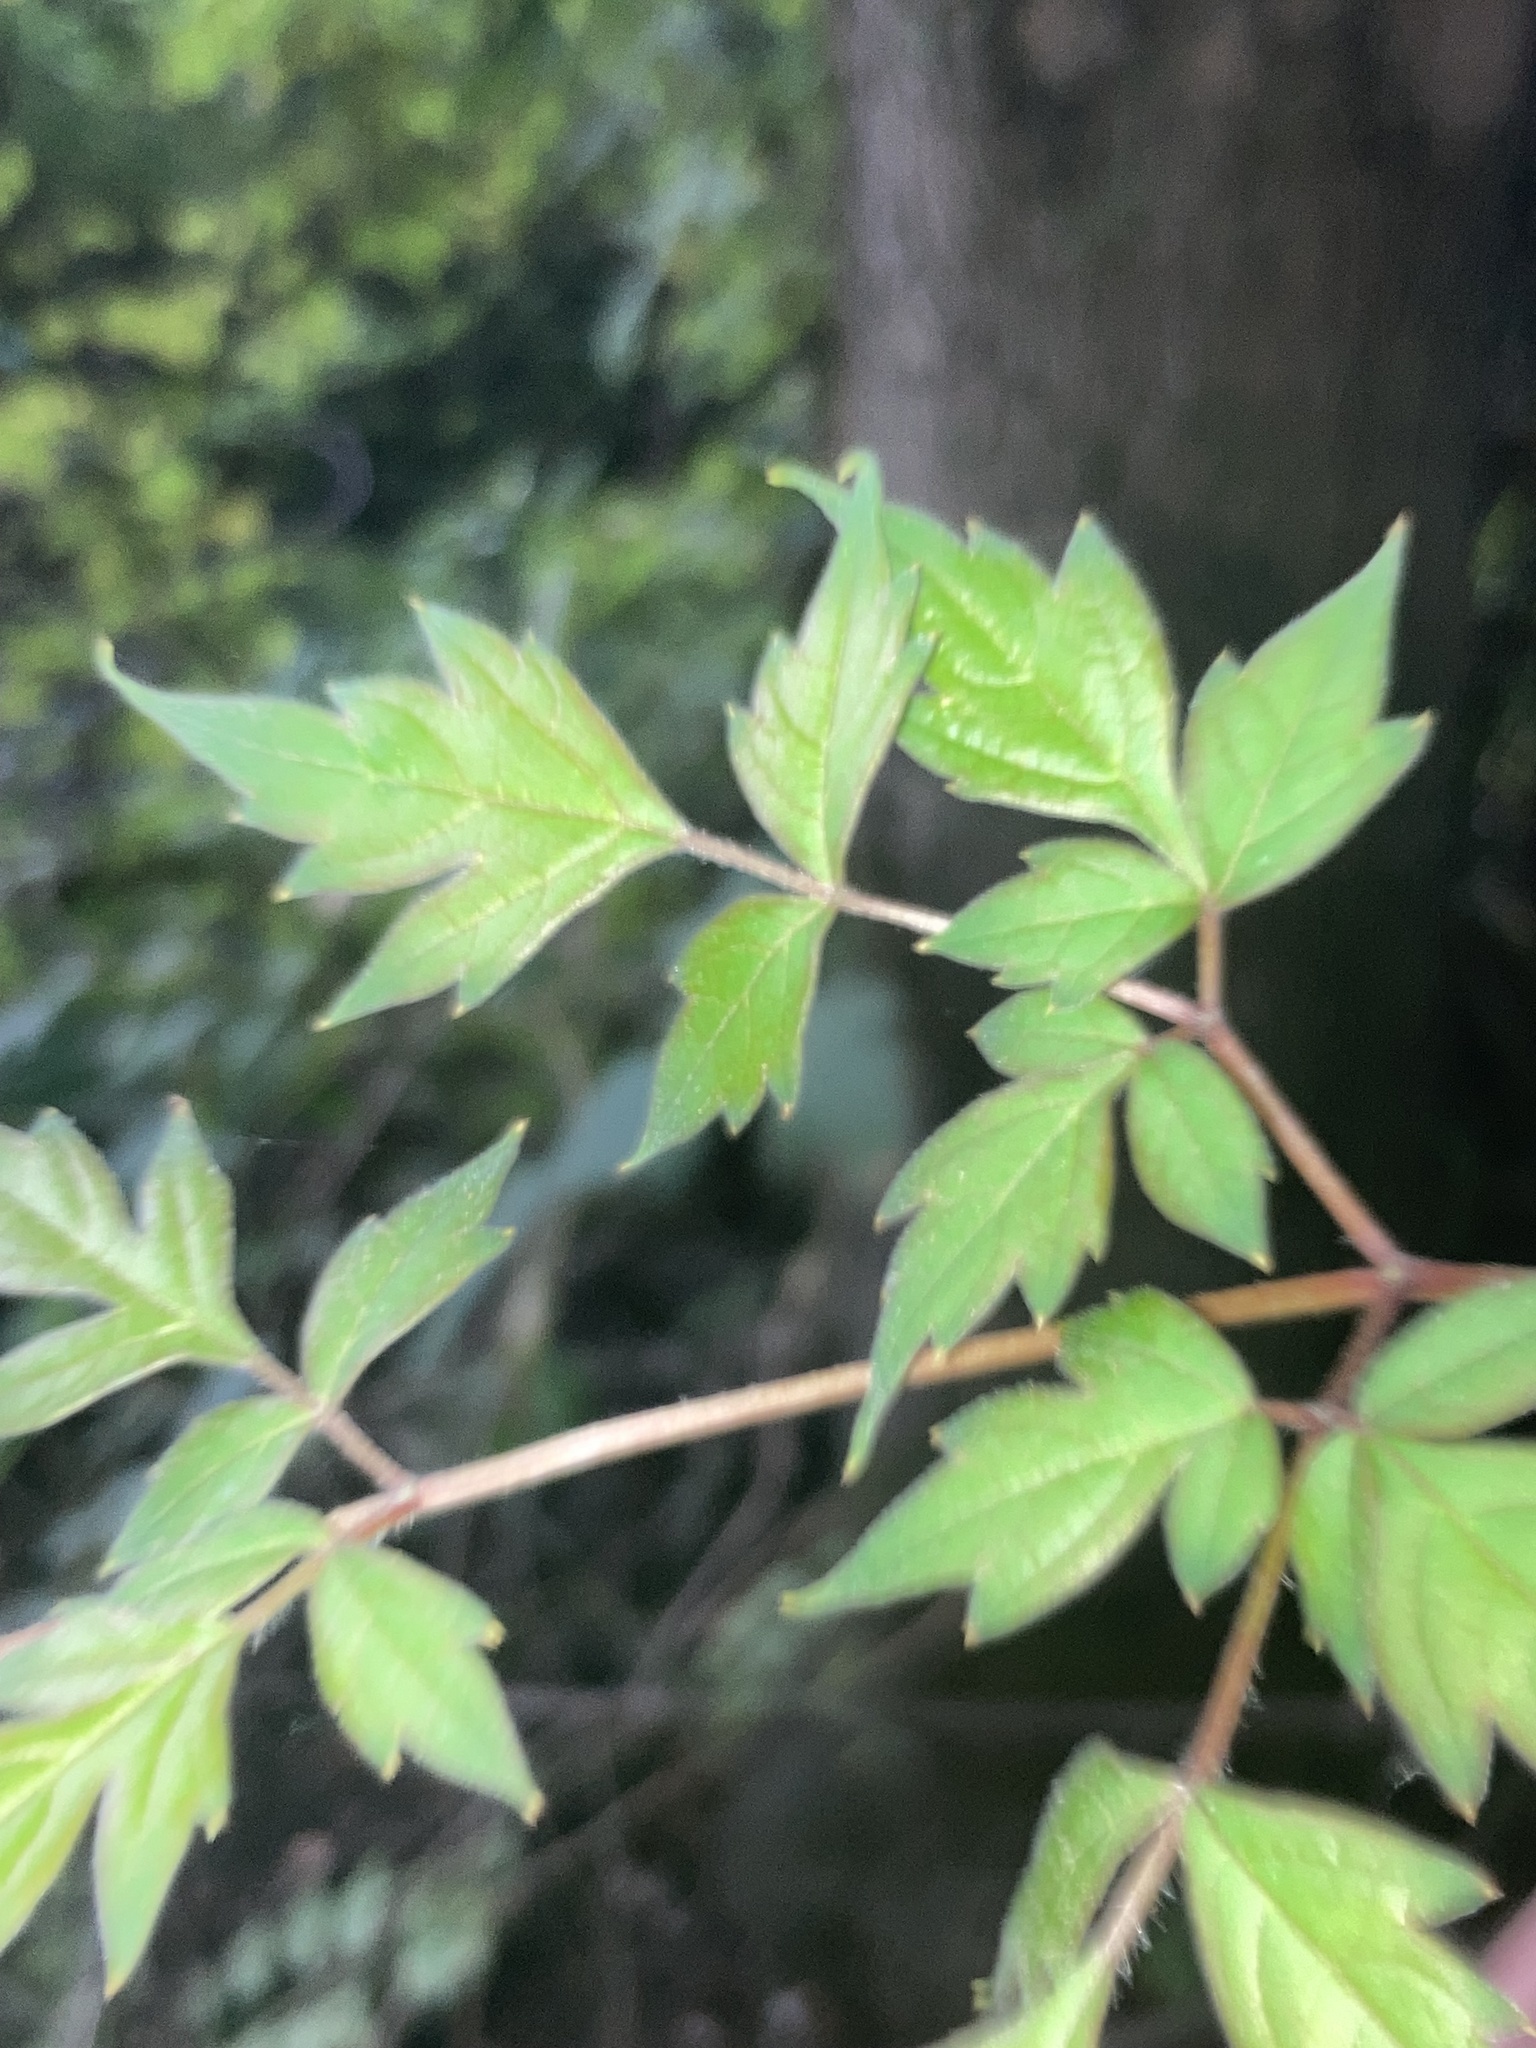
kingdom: Plantae
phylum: Tracheophyta
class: Magnoliopsida
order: Vitales
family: Vitaceae
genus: Nekemias
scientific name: Nekemias arborea
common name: Peppervine
